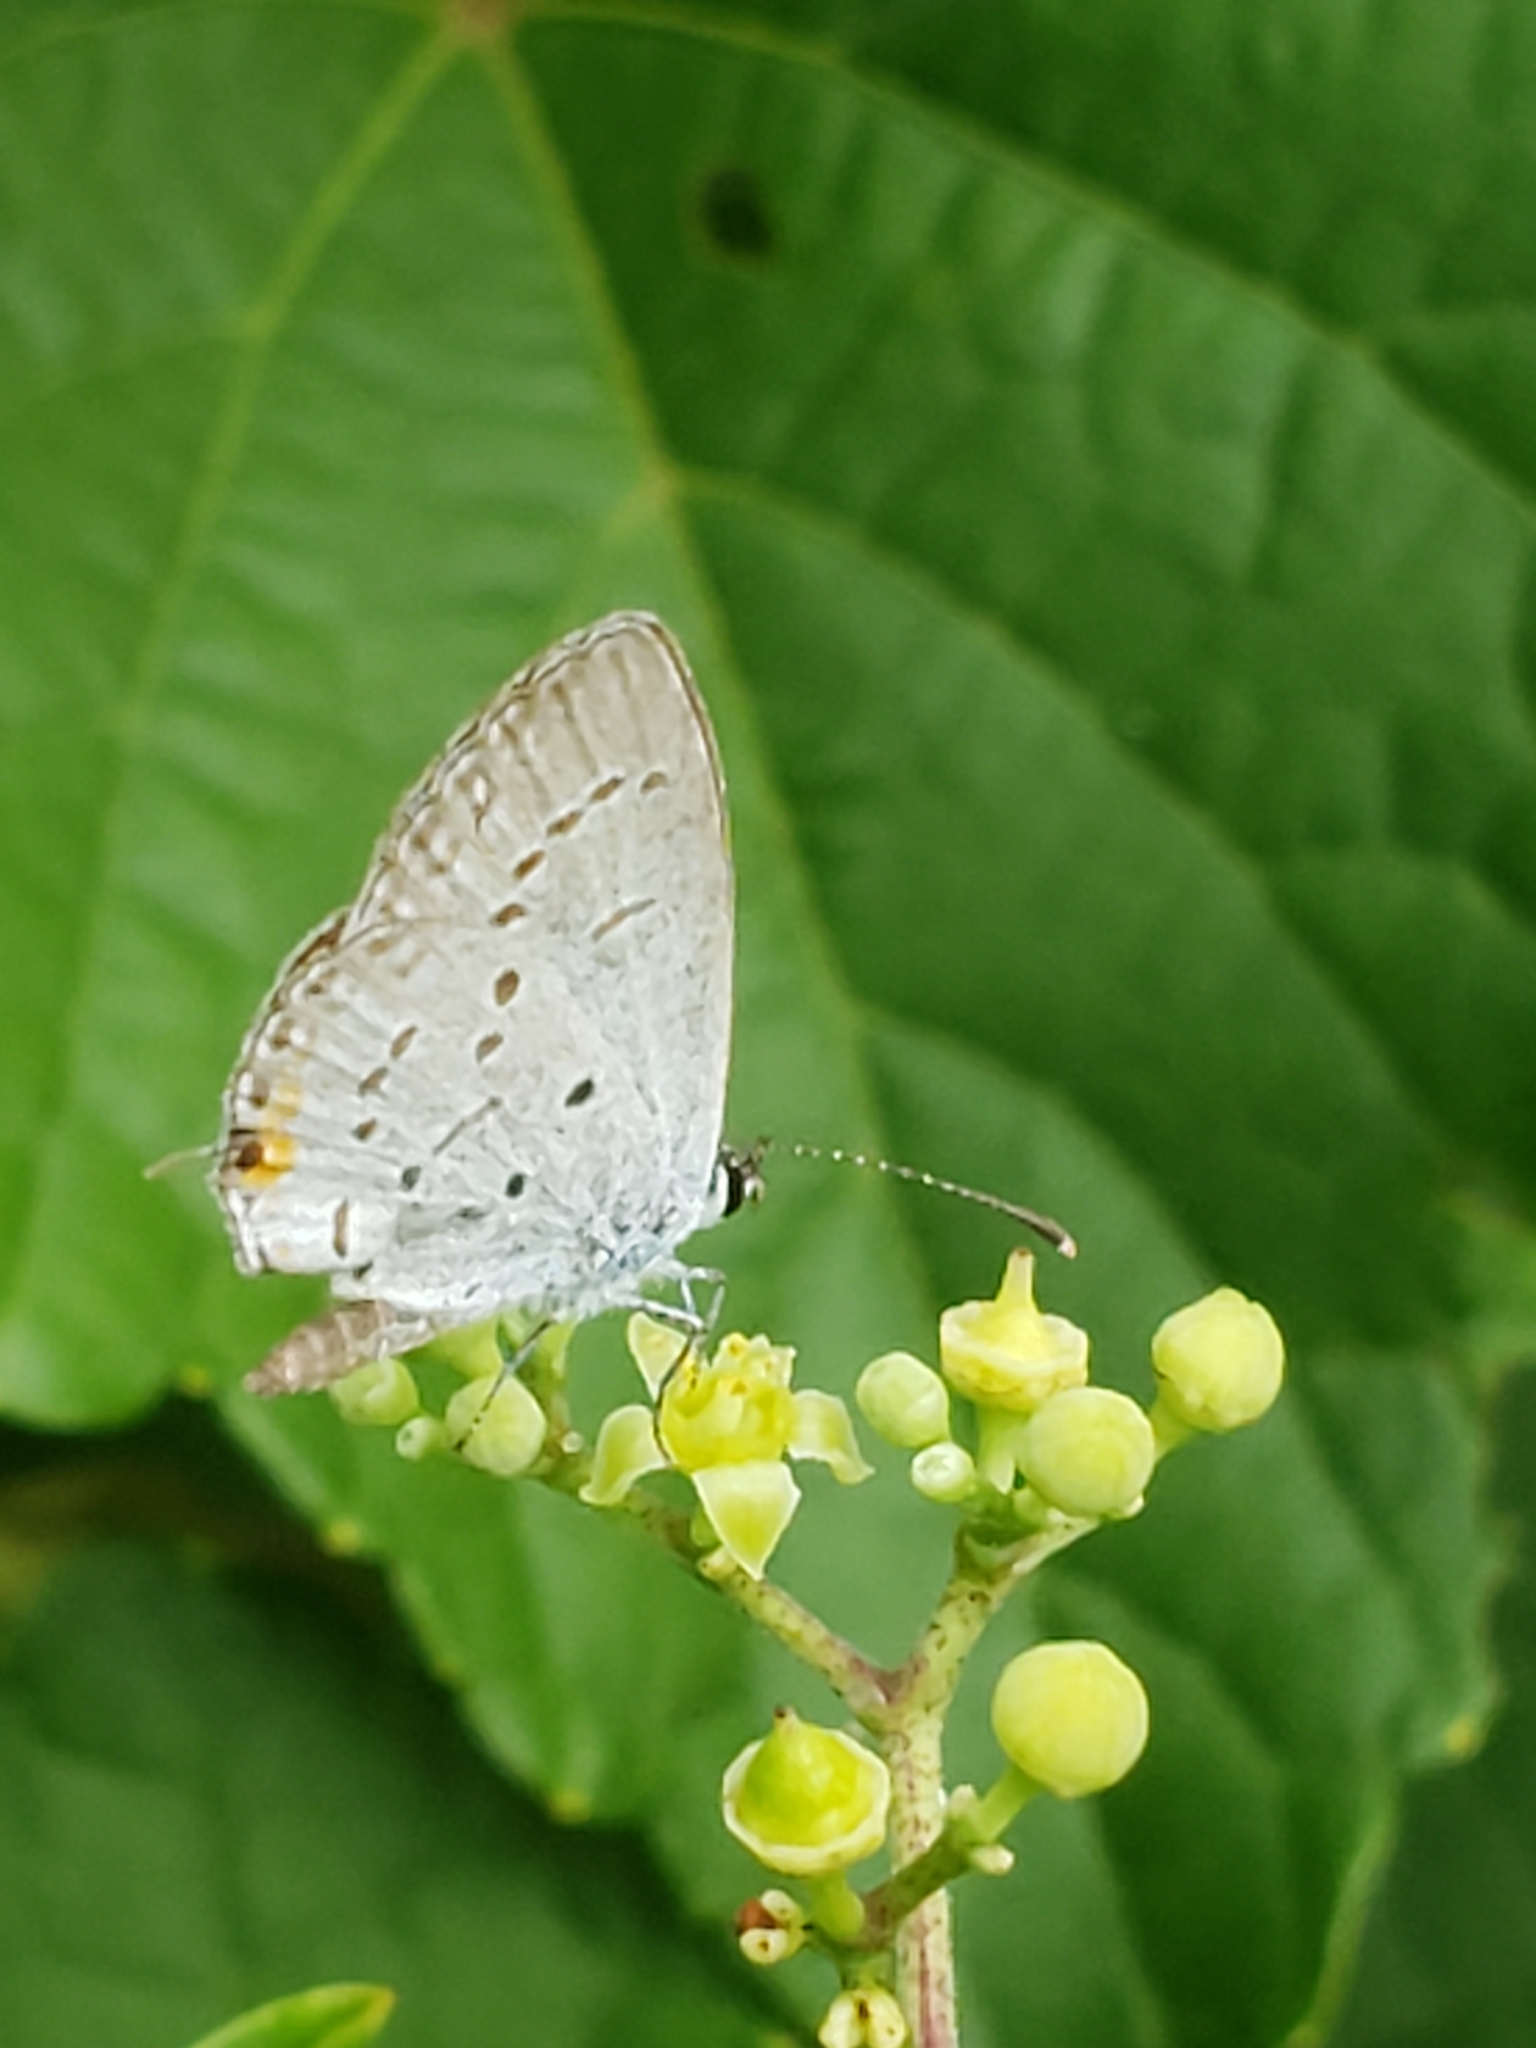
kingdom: Animalia
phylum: Arthropoda
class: Insecta
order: Lepidoptera
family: Lycaenidae
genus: Elkalyce
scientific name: Elkalyce comyntas
